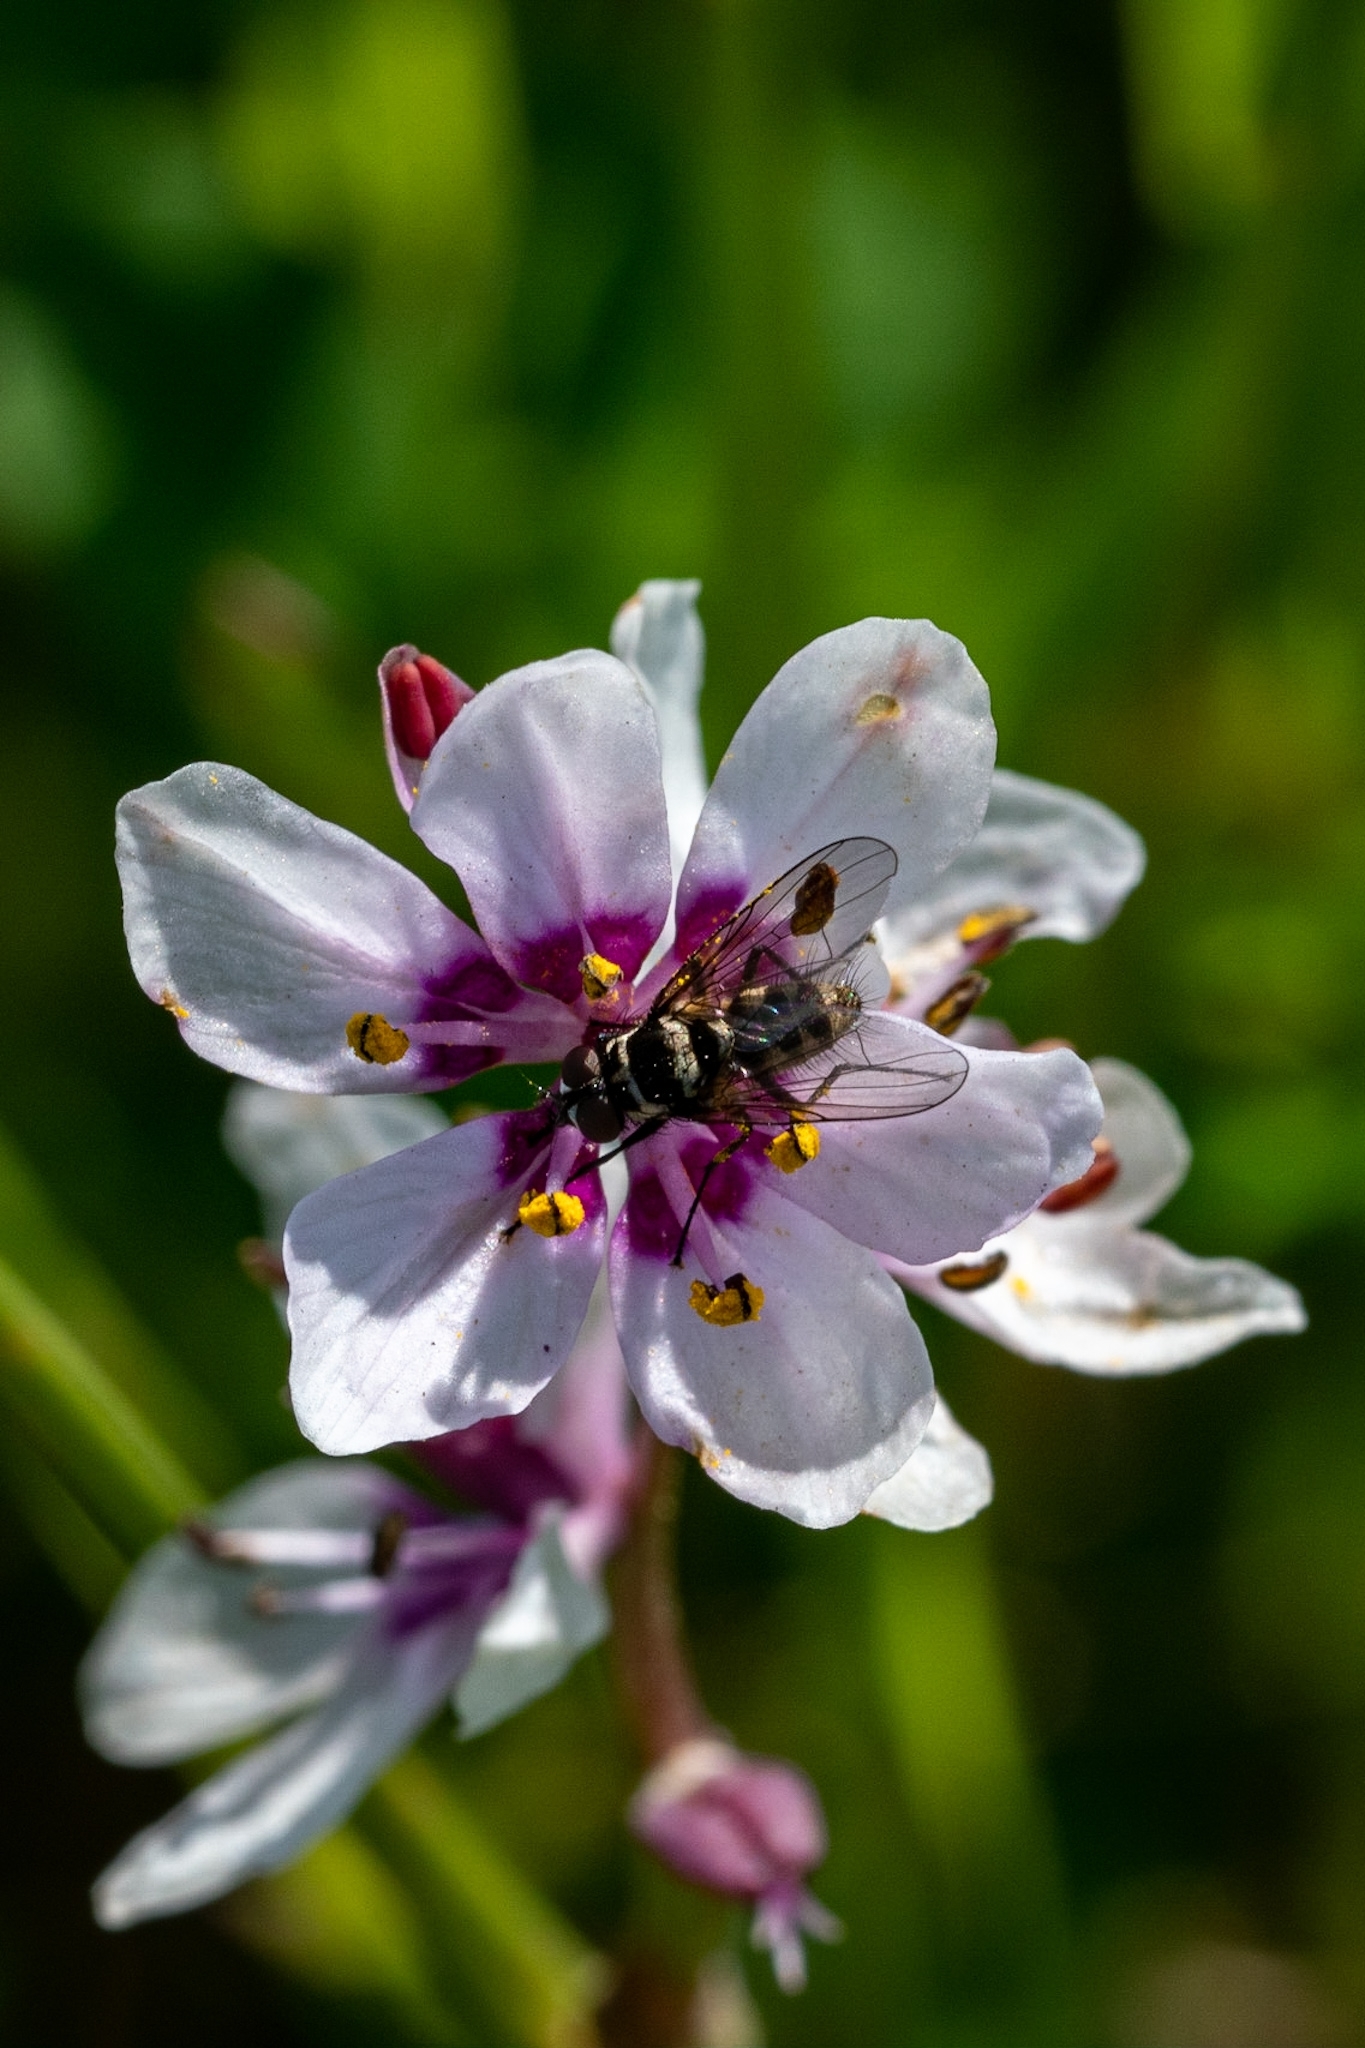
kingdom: Plantae
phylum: Tracheophyta
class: Liliopsida
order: Liliales
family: Colchicaceae
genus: Wurmbea
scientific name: Wurmbea stricta
